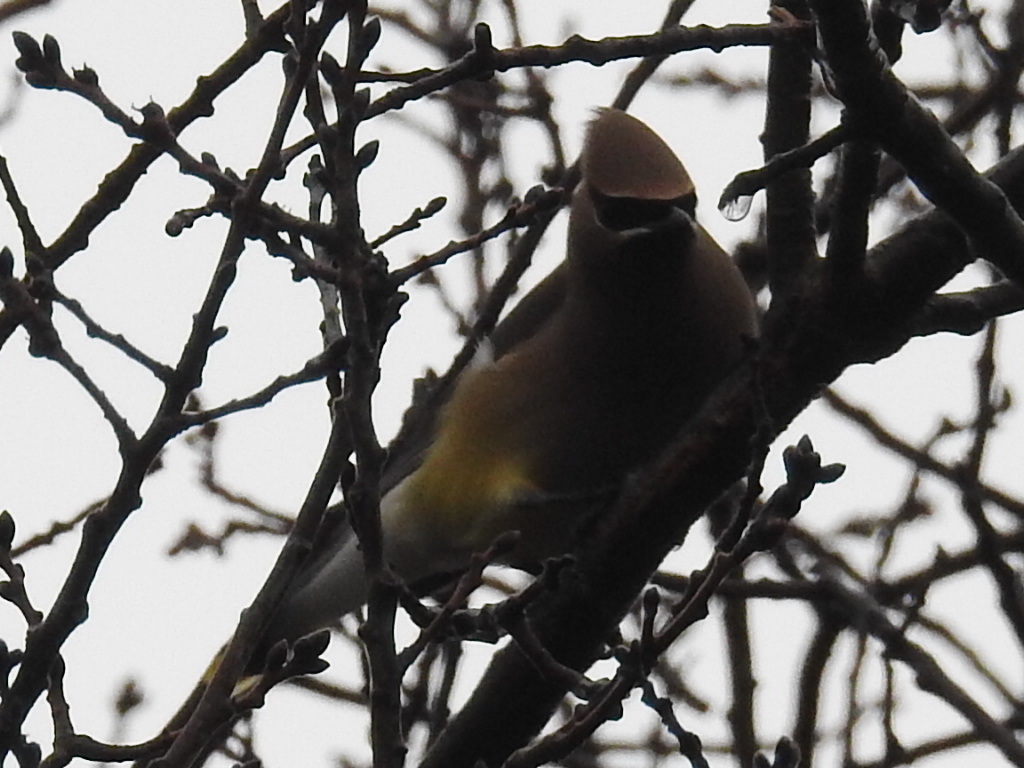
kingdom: Animalia
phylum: Chordata
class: Aves
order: Passeriformes
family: Bombycillidae
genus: Bombycilla
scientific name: Bombycilla cedrorum
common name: Cedar waxwing
